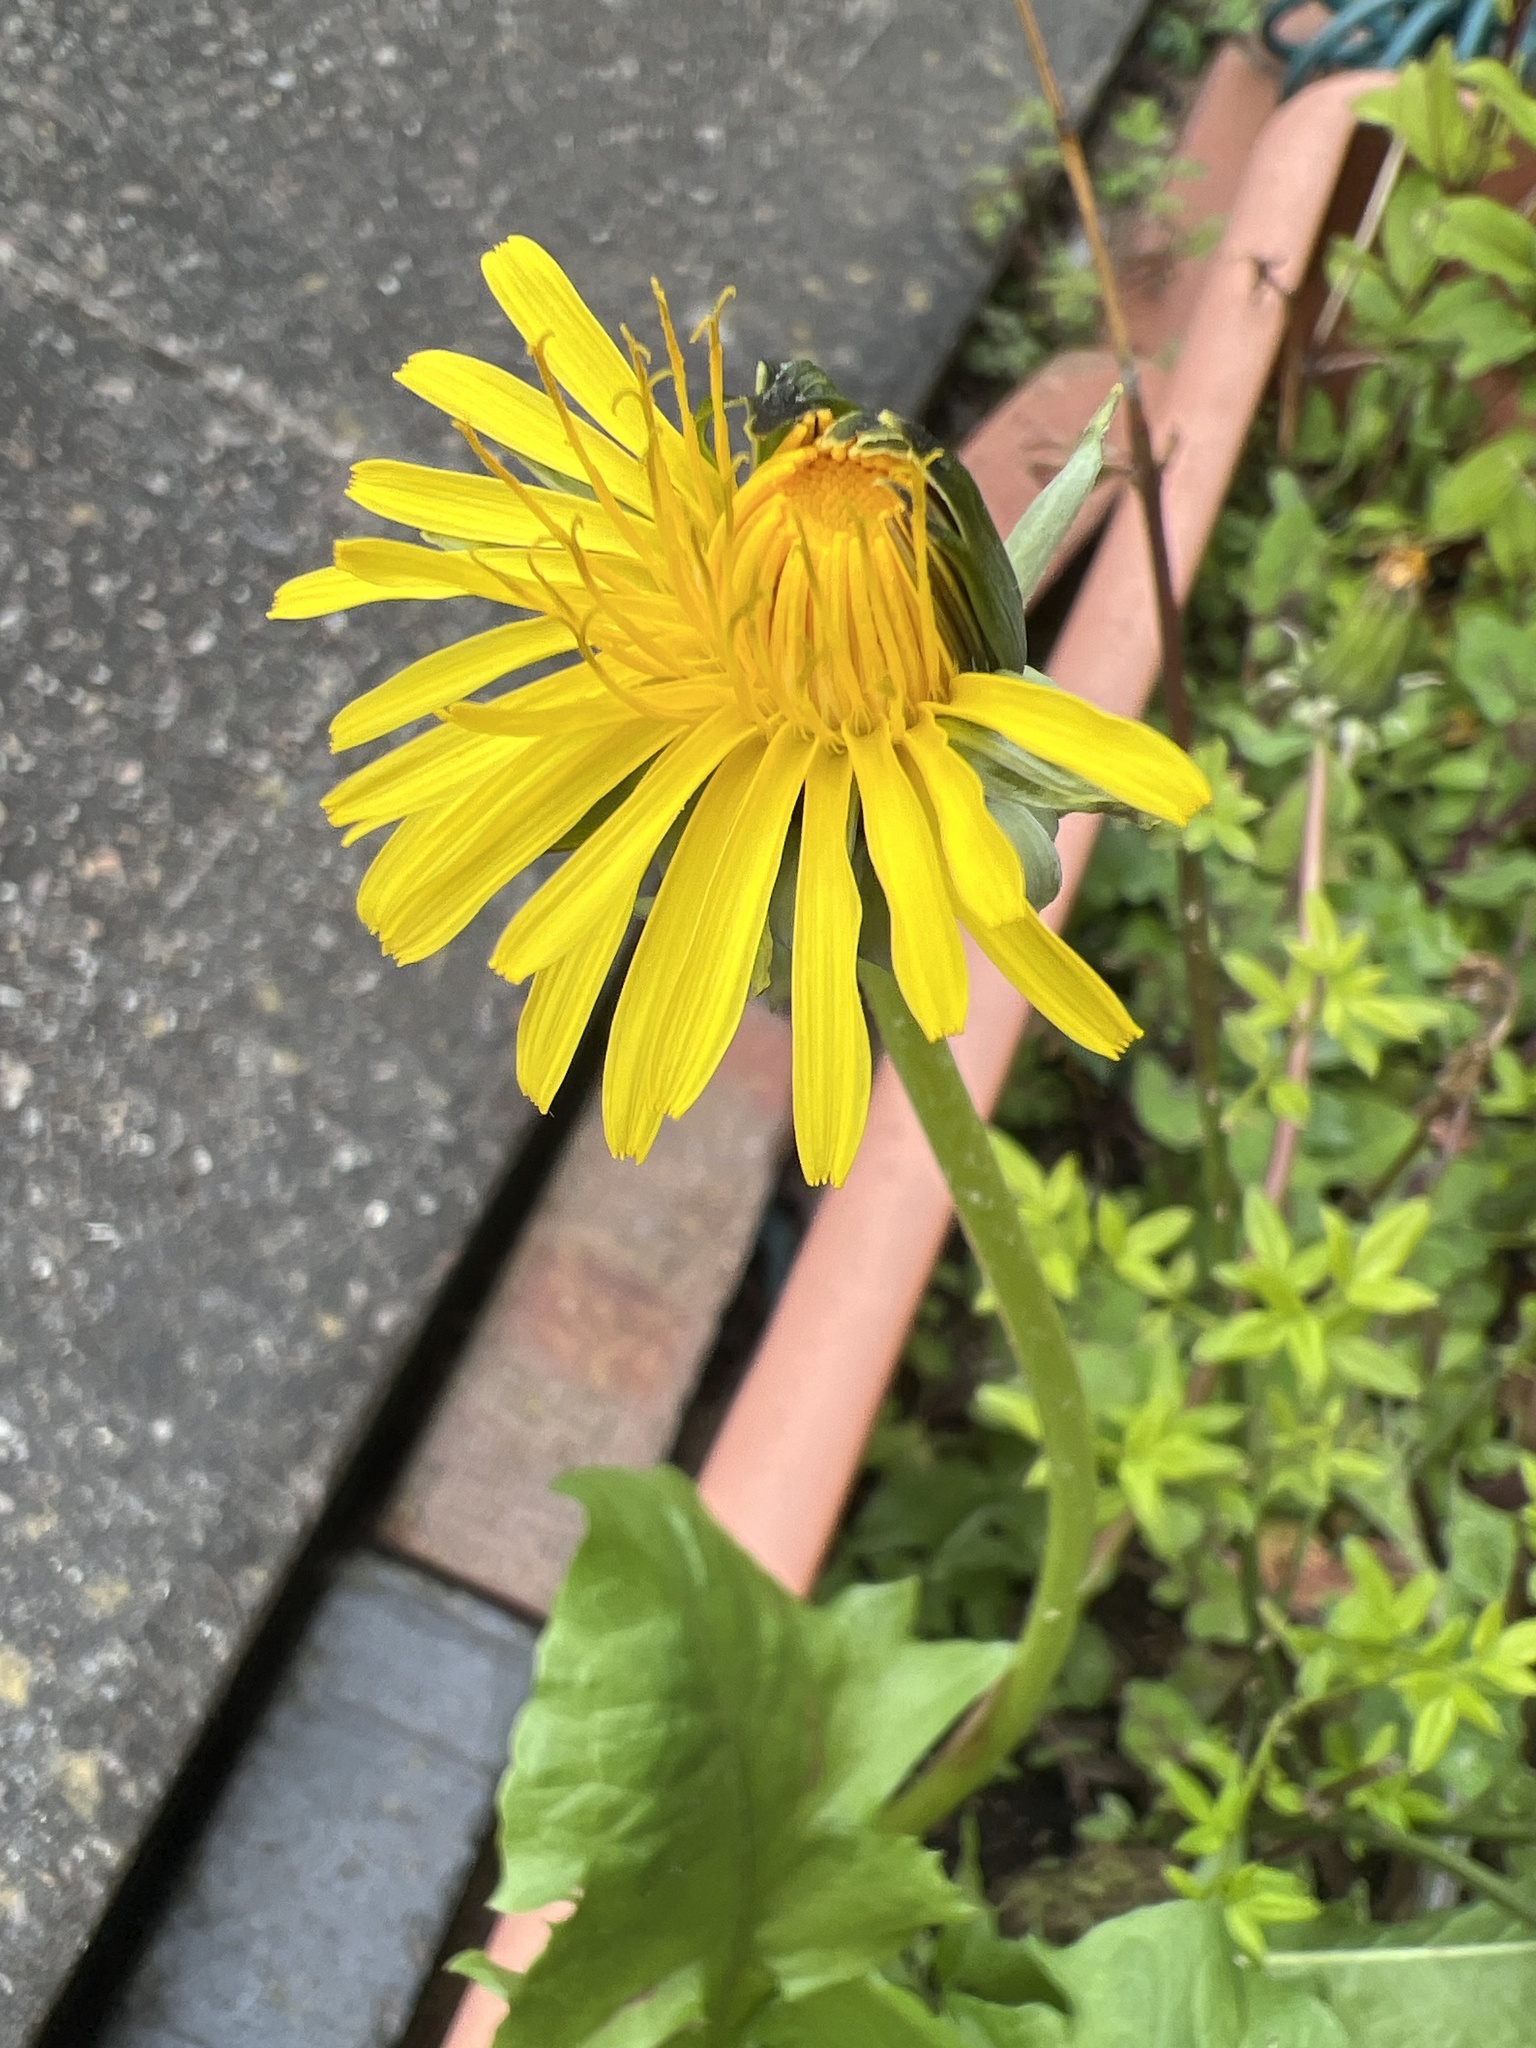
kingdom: Plantae
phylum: Tracheophyta
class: Magnoliopsida
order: Asterales
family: Asteraceae
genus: Taraxacum
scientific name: Taraxacum officinale
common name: Common dandelion
